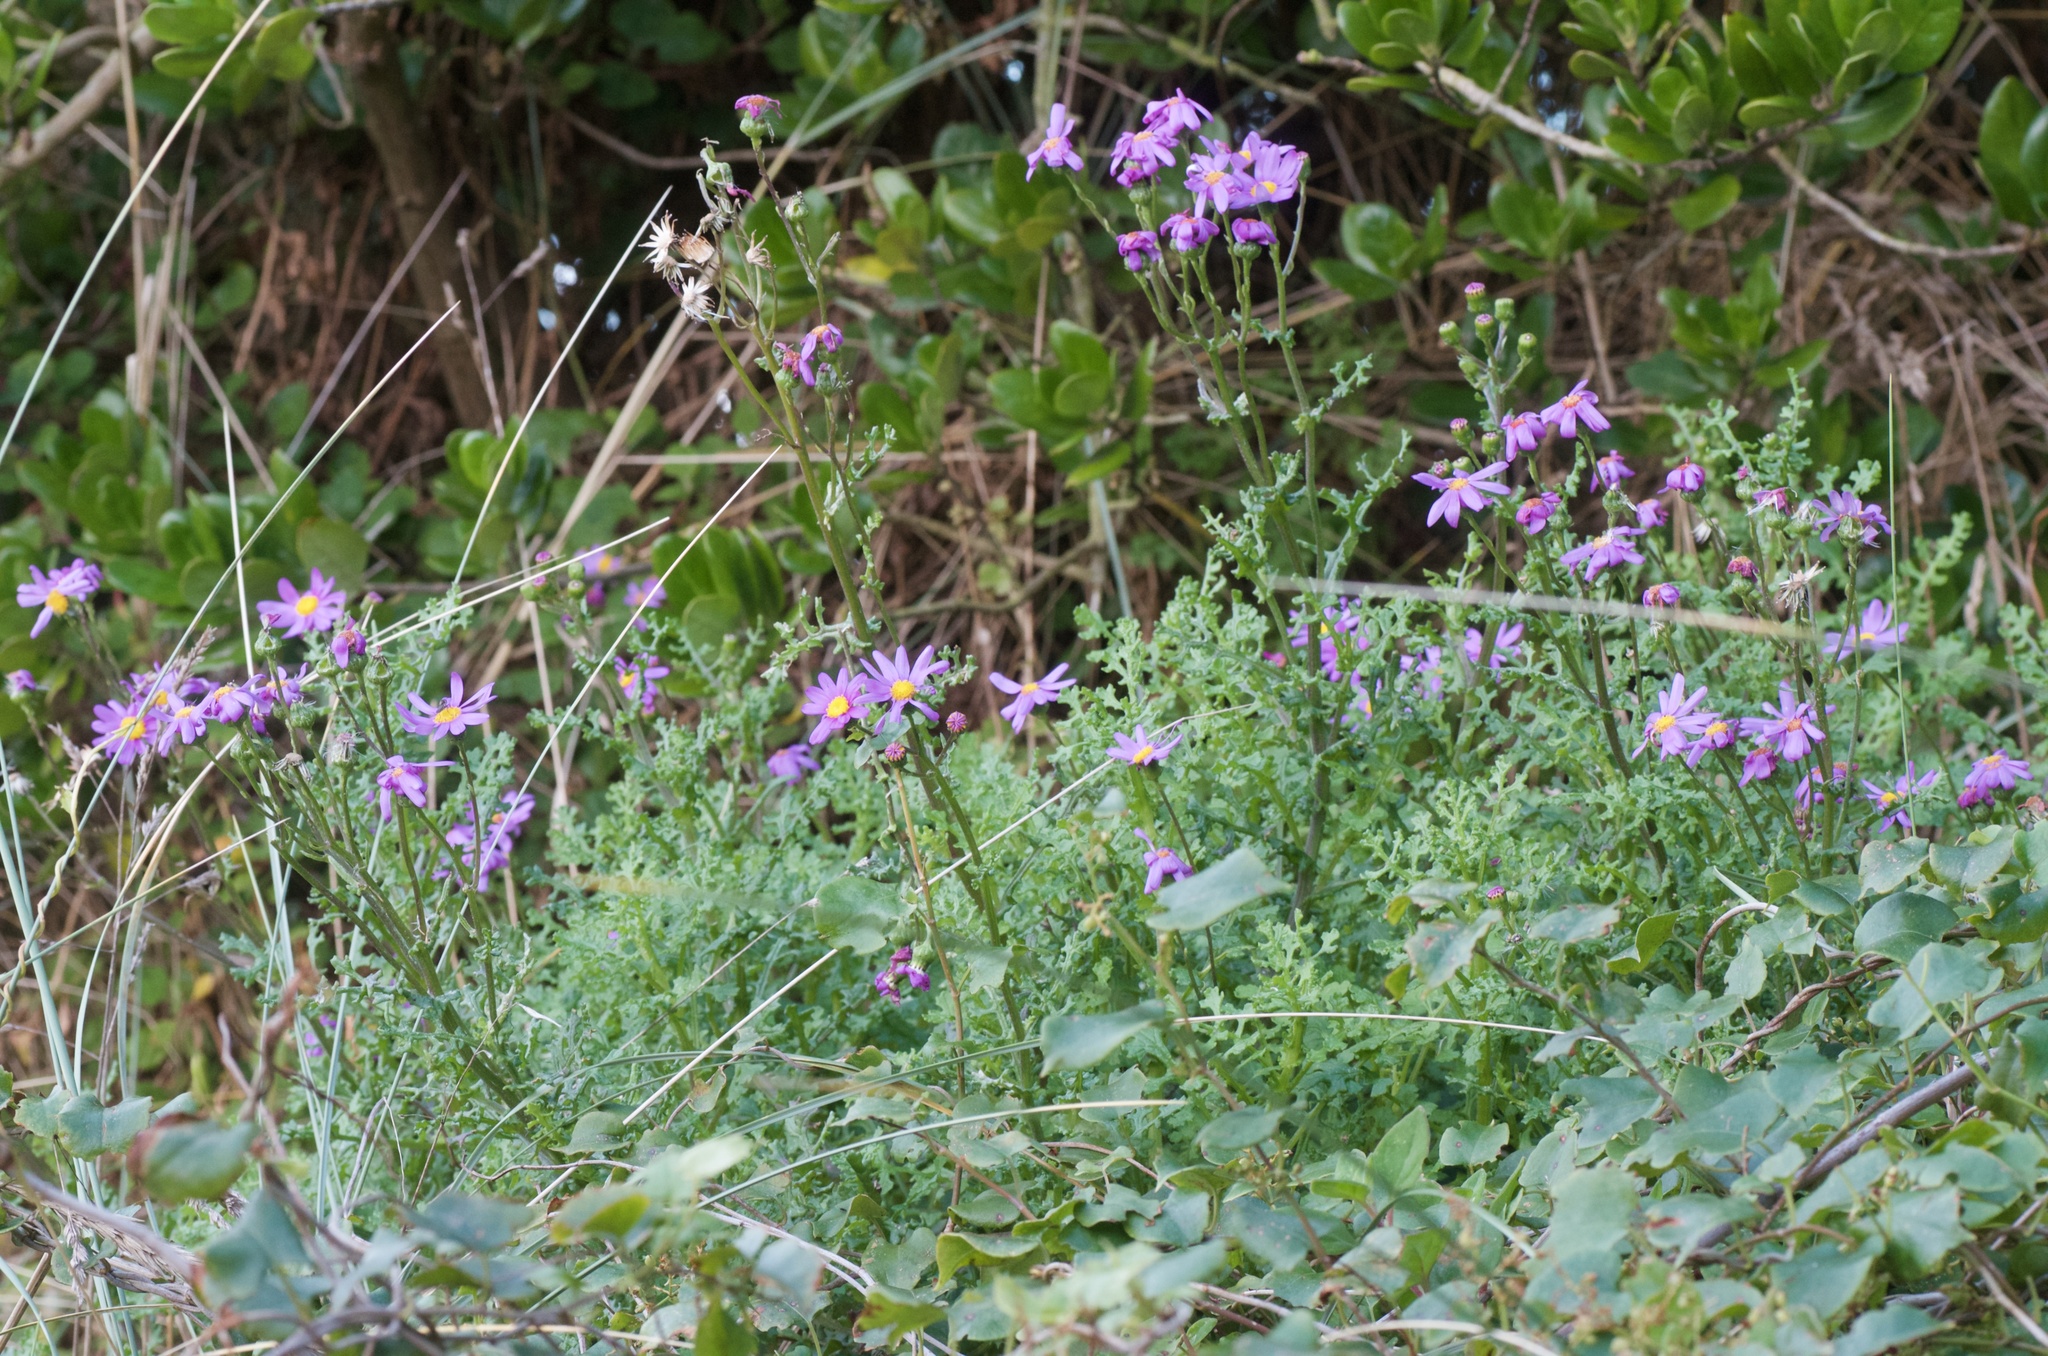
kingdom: Plantae
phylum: Tracheophyta
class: Magnoliopsida
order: Asterales
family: Asteraceae
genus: Senecio
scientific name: Senecio elegans
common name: Purple groundsel
